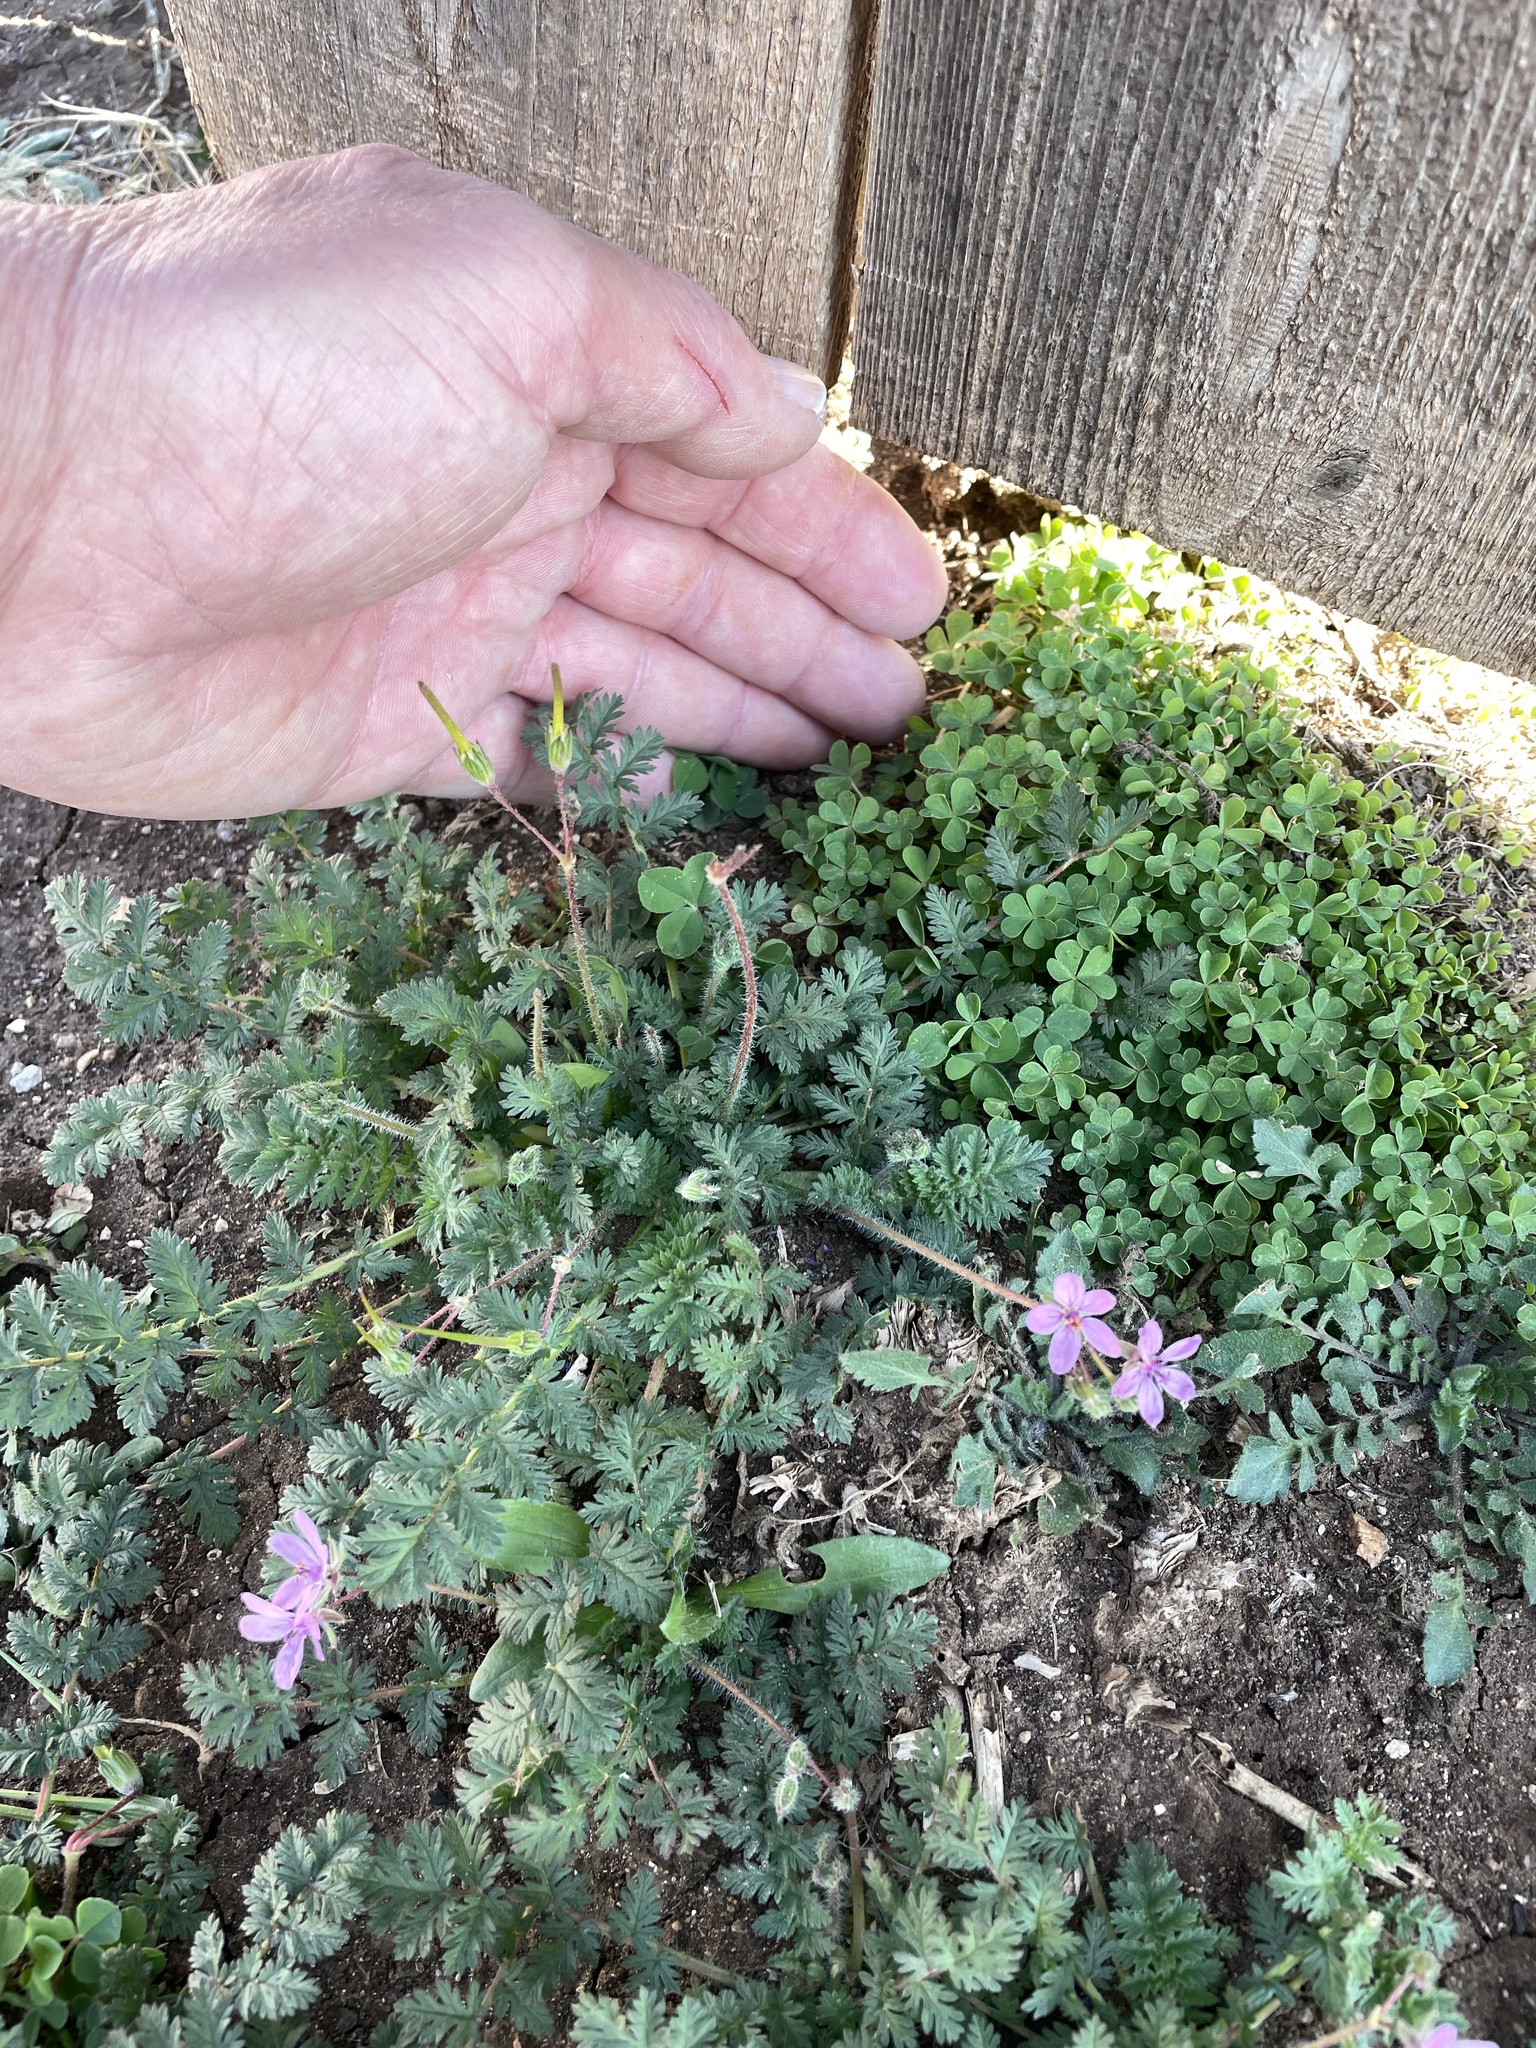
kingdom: Plantae
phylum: Tracheophyta
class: Magnoliopsida
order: Geraniales
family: Geraniaceae
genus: Erodium
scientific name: Erodium cicutarium
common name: Common stork's-bill
